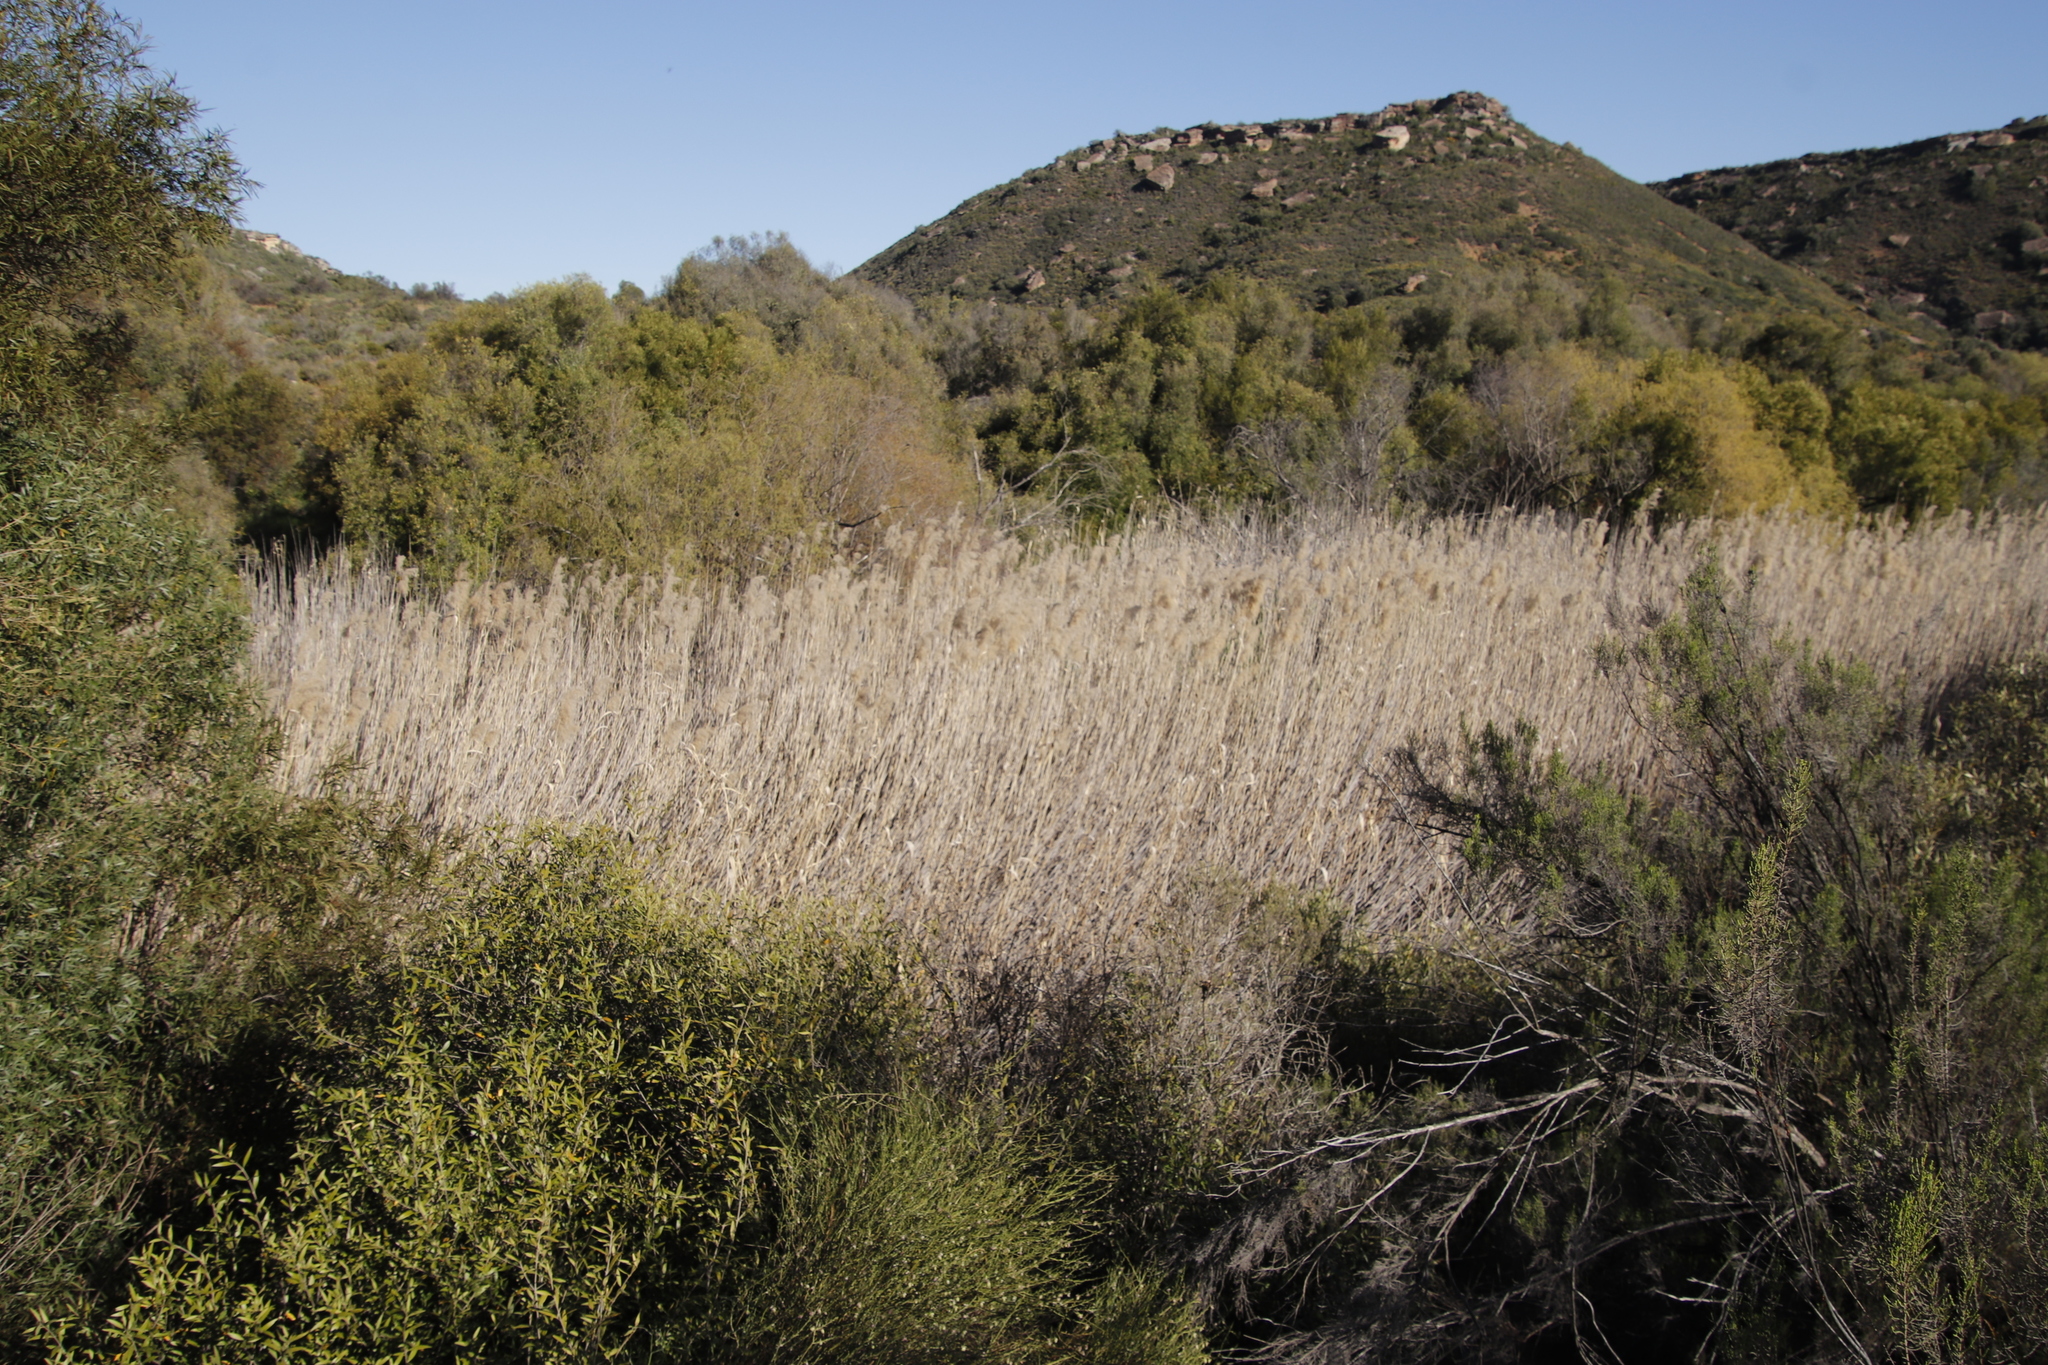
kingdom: Plantae
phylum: Tracheophyta
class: Liliopsida
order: Poales
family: Poaceae
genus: Phragmites
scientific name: Phragmites australis
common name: Common reed
